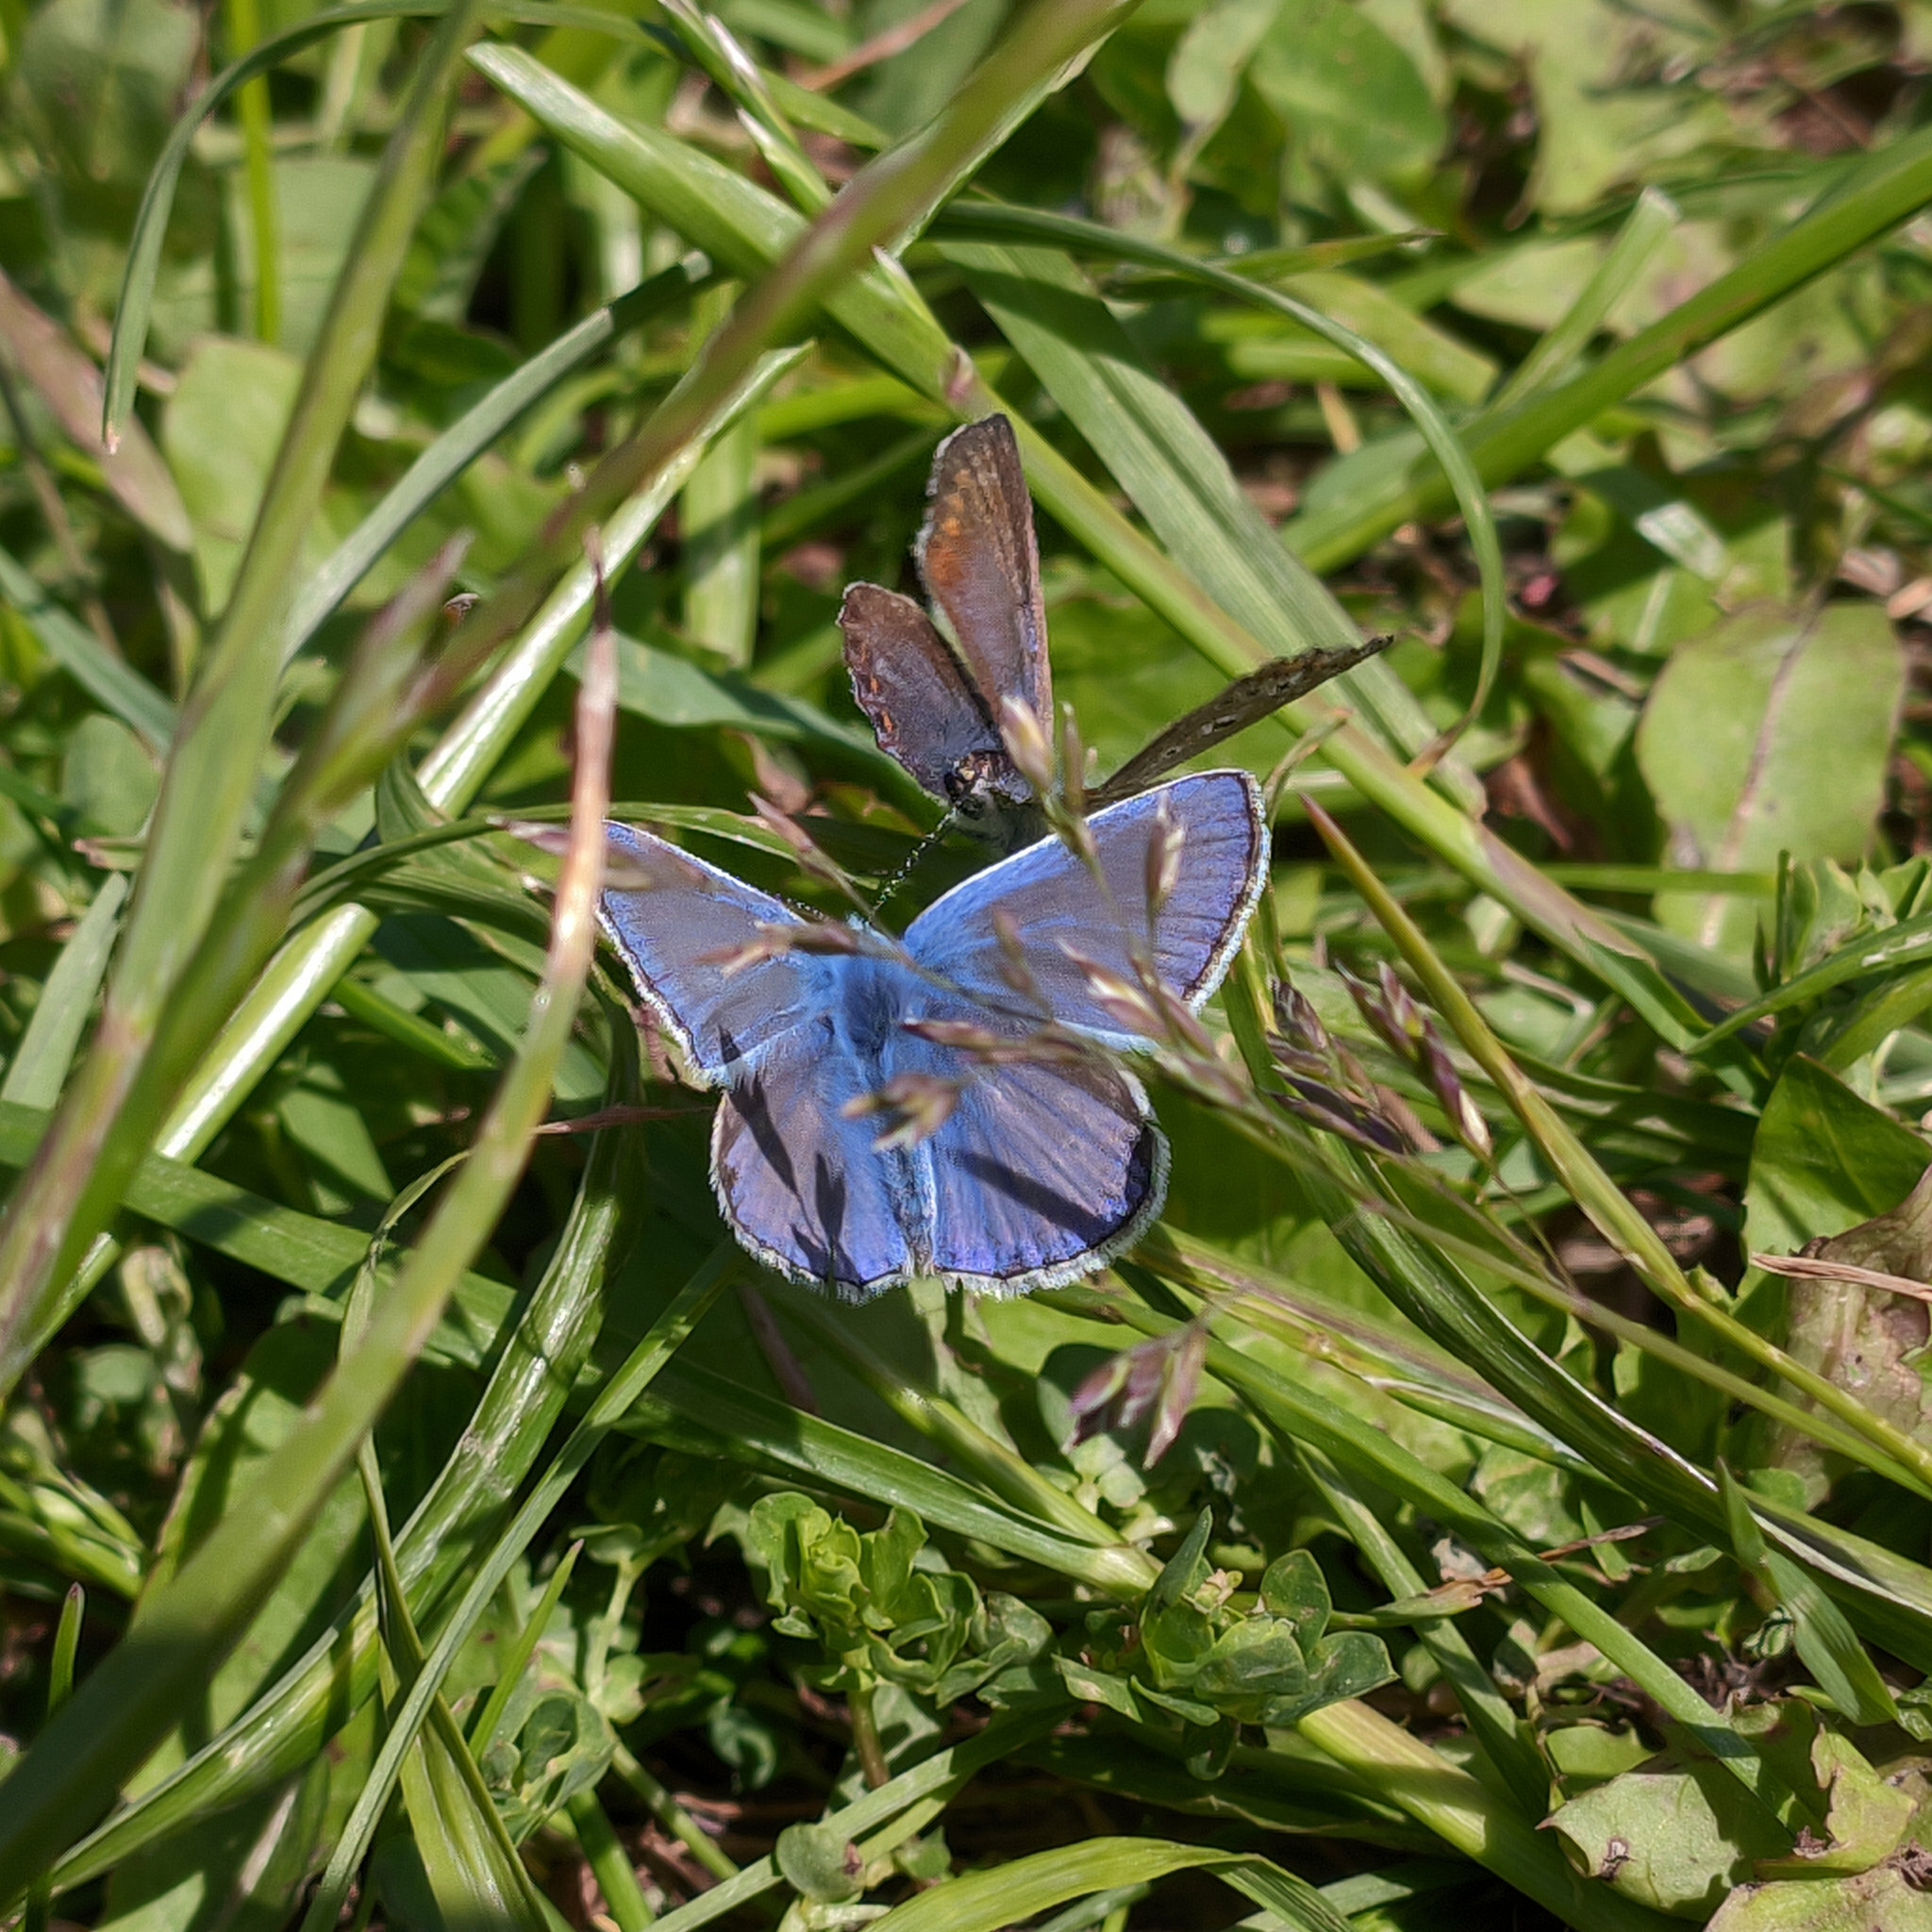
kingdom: Animalia
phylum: Arthropoda
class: Insecta
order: Lepidoptera
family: Lycaenidae
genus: Polyommatus
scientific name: Polyommatus icarus
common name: Common blue
